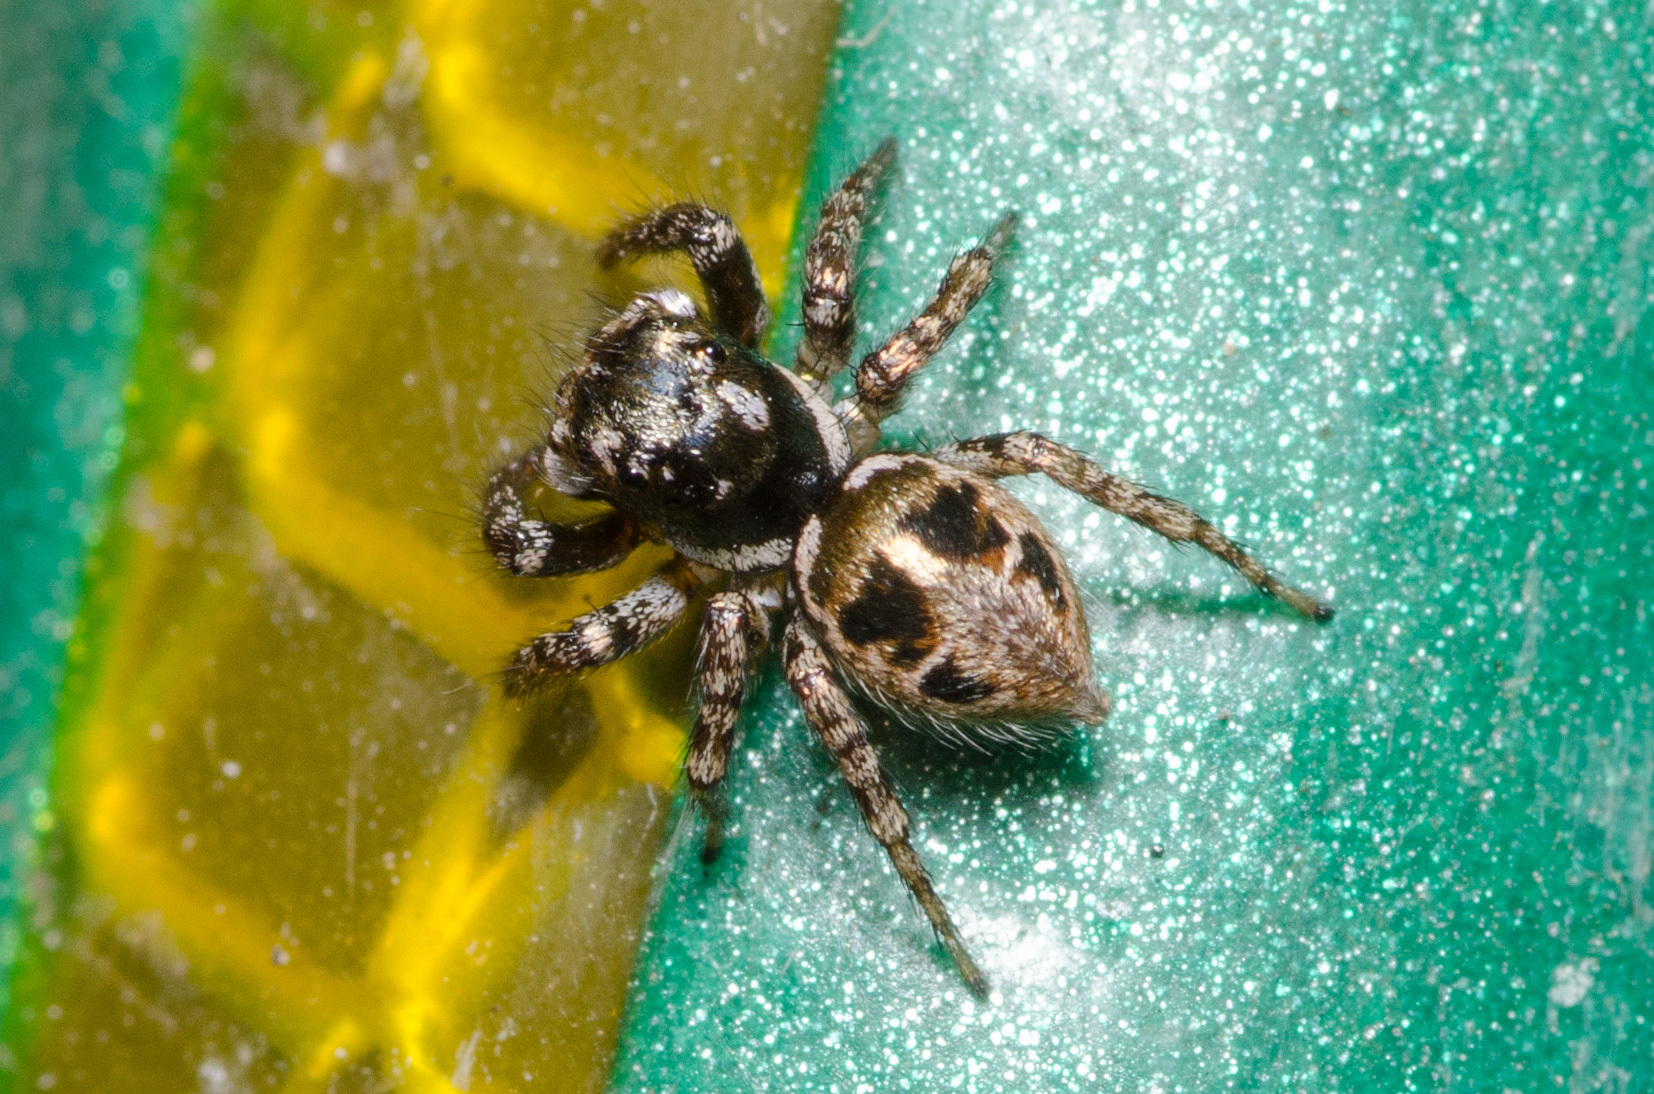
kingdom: Animalia
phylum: Arthropoda
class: Arachnida
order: Araneae
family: Salticidae
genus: Anasaitis
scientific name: Anasaitis canosa
